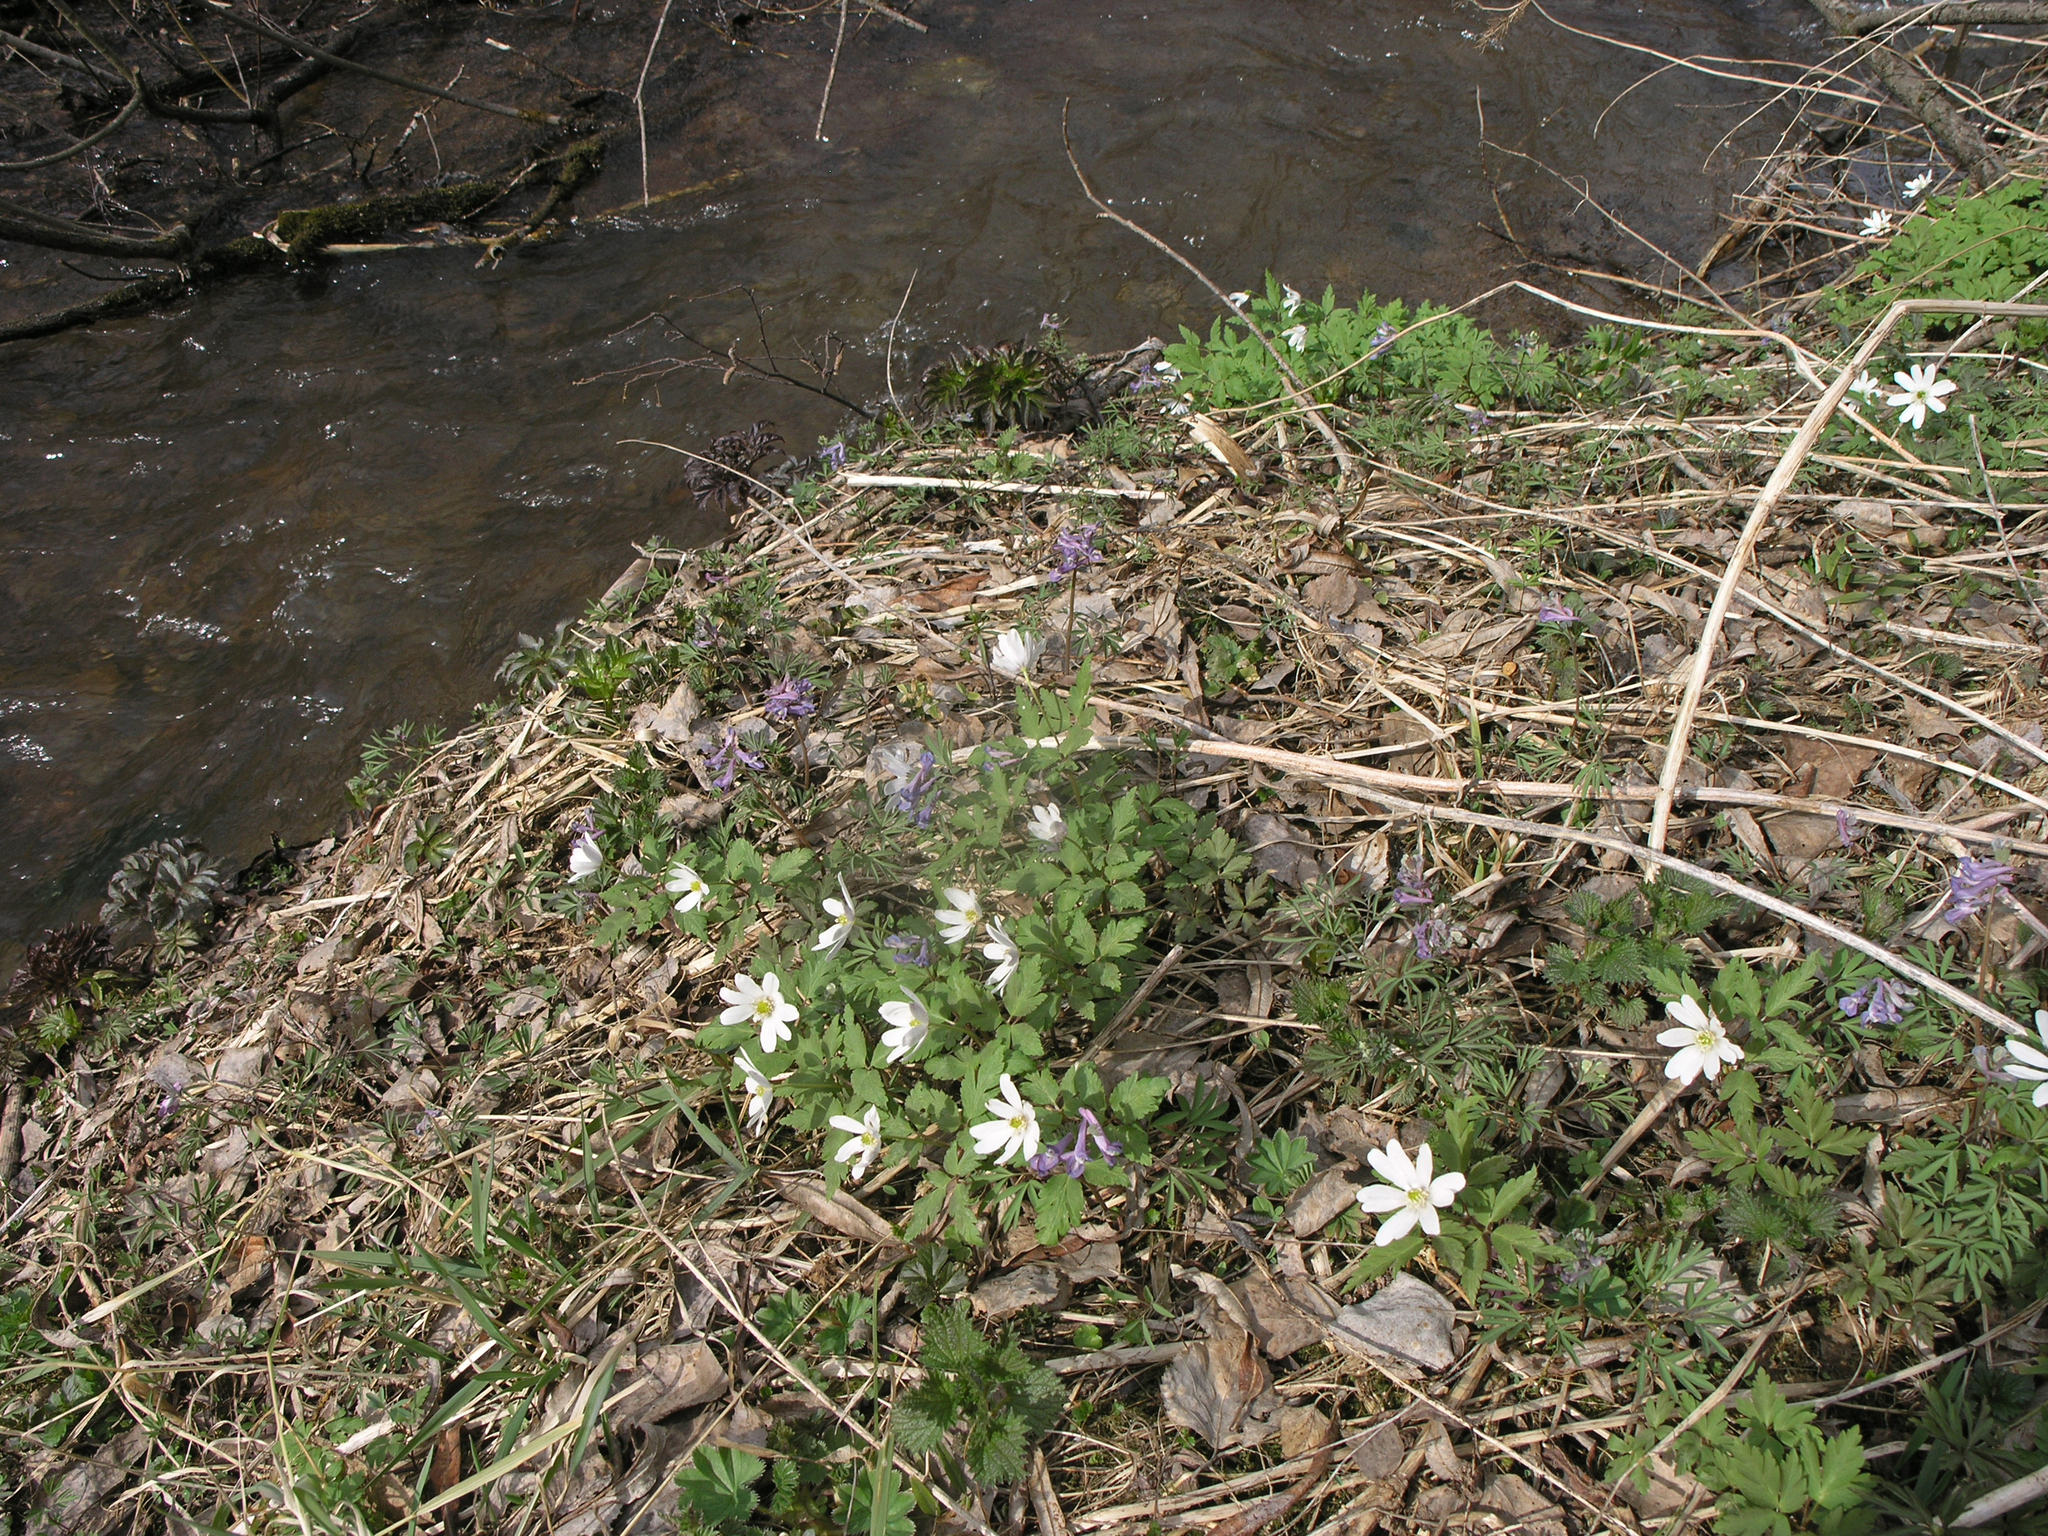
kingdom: Plantae
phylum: Tracheophyta
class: Magnoliopsida
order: Ranunculales
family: Papaveraceae
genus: Corydalis
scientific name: Corydalis solida
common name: Bird-in-a-bush
